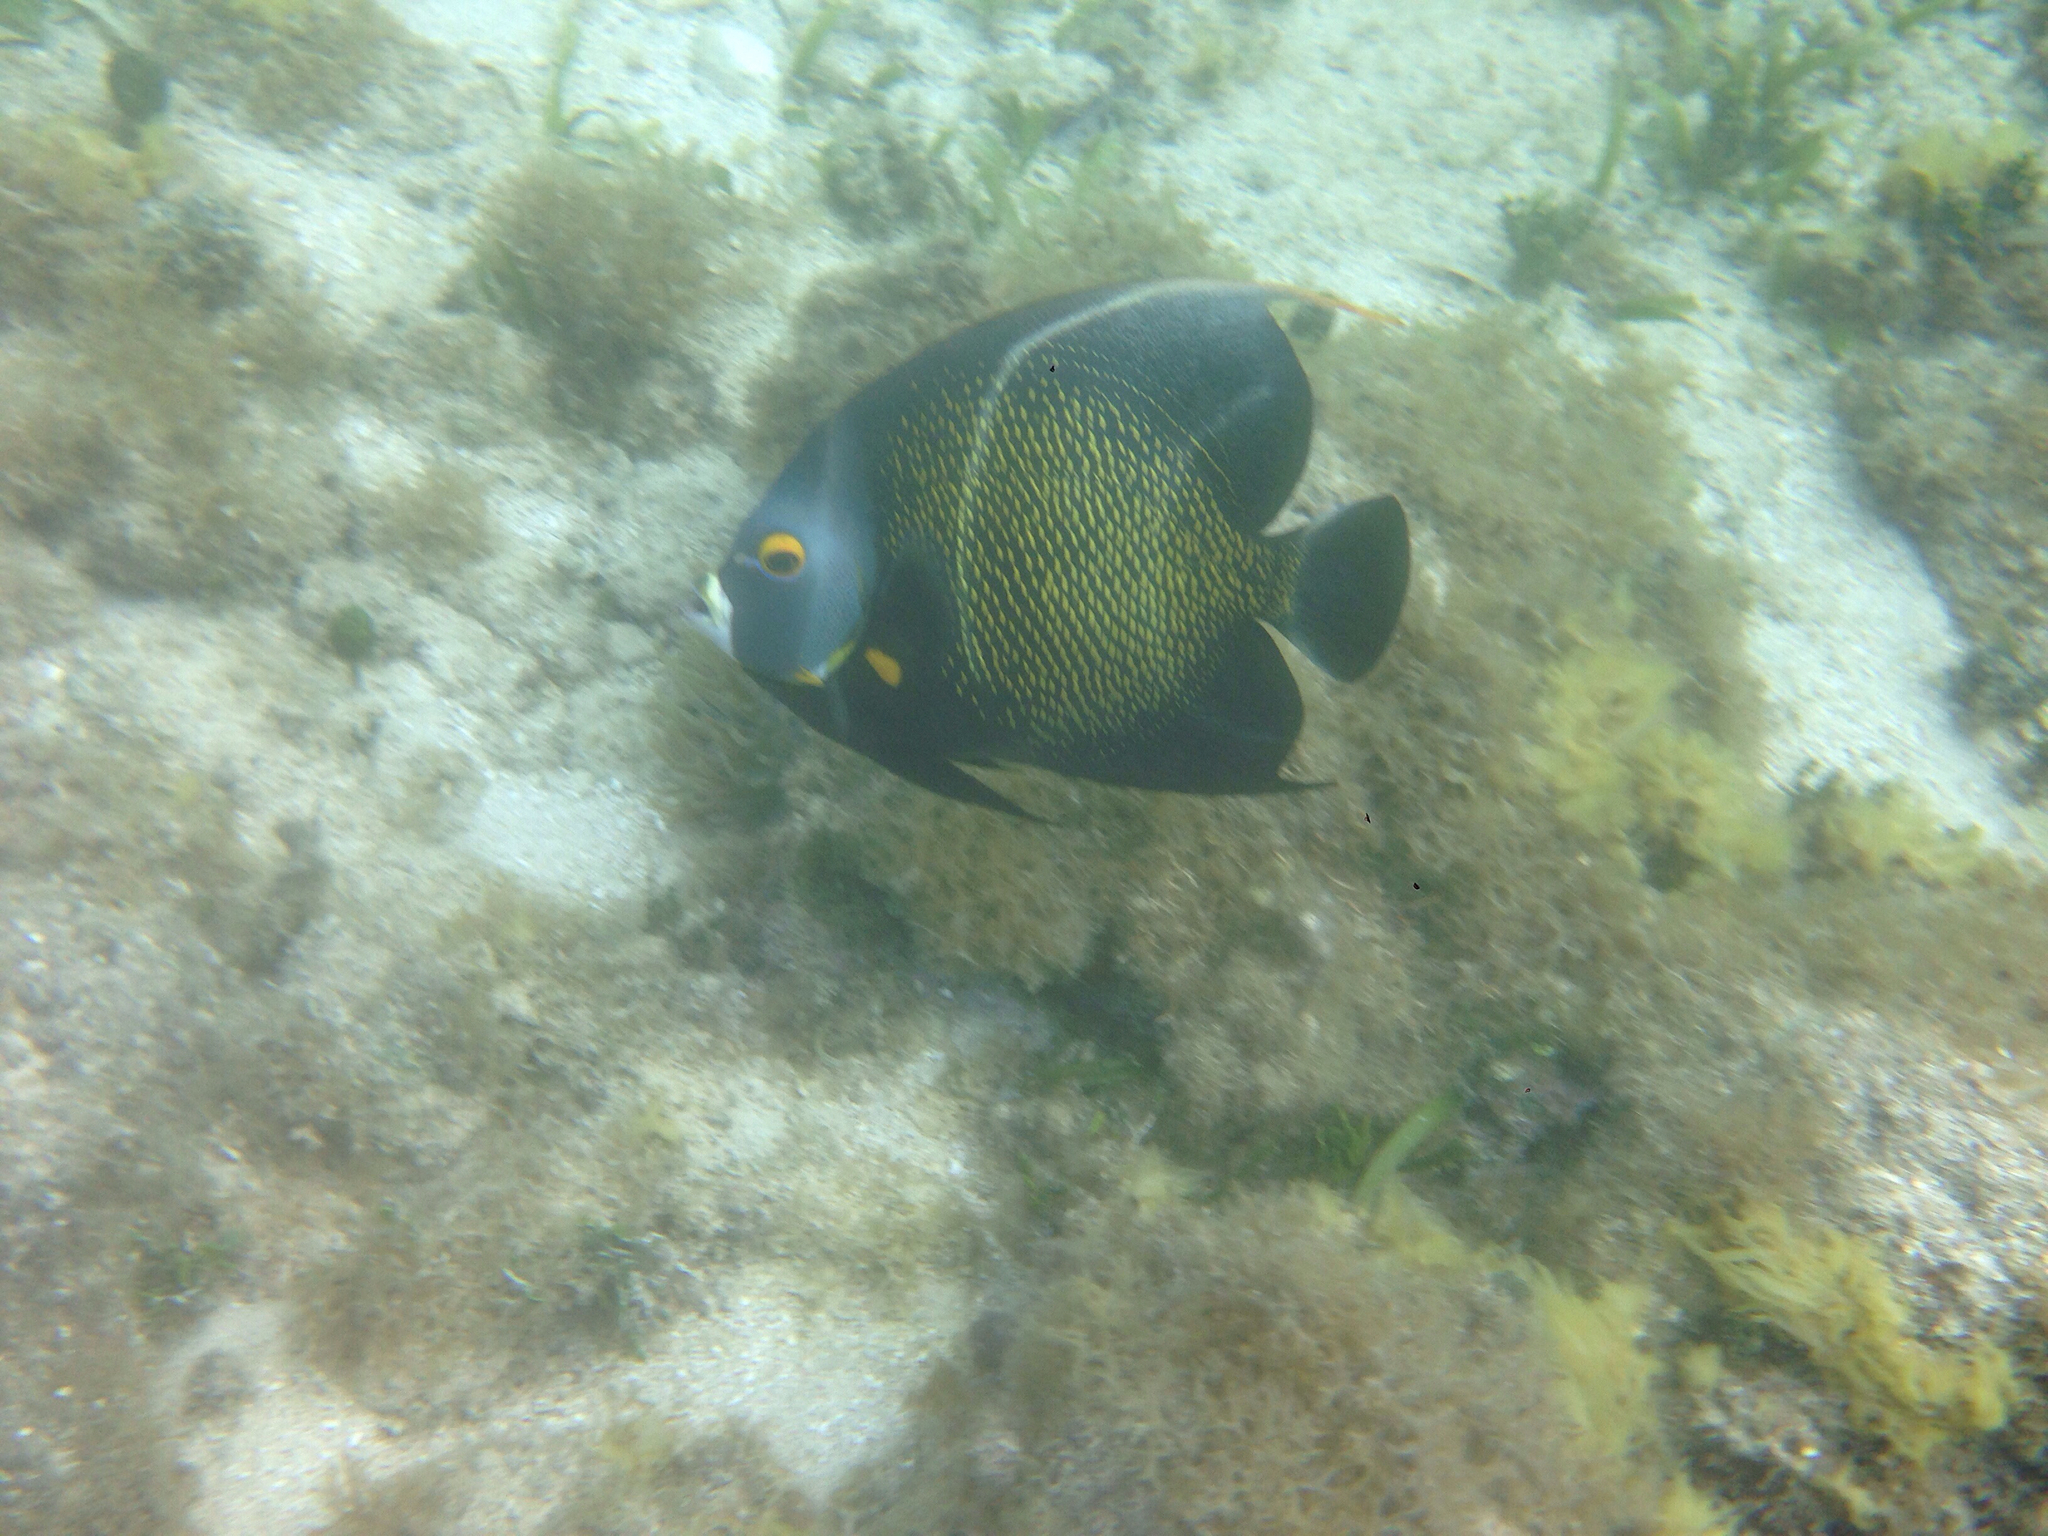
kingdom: Animalia
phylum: Chordata
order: Perciformes
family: Pomacanthidae
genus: Pomacanthus
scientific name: Pomacanthus paru
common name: French angelfish
